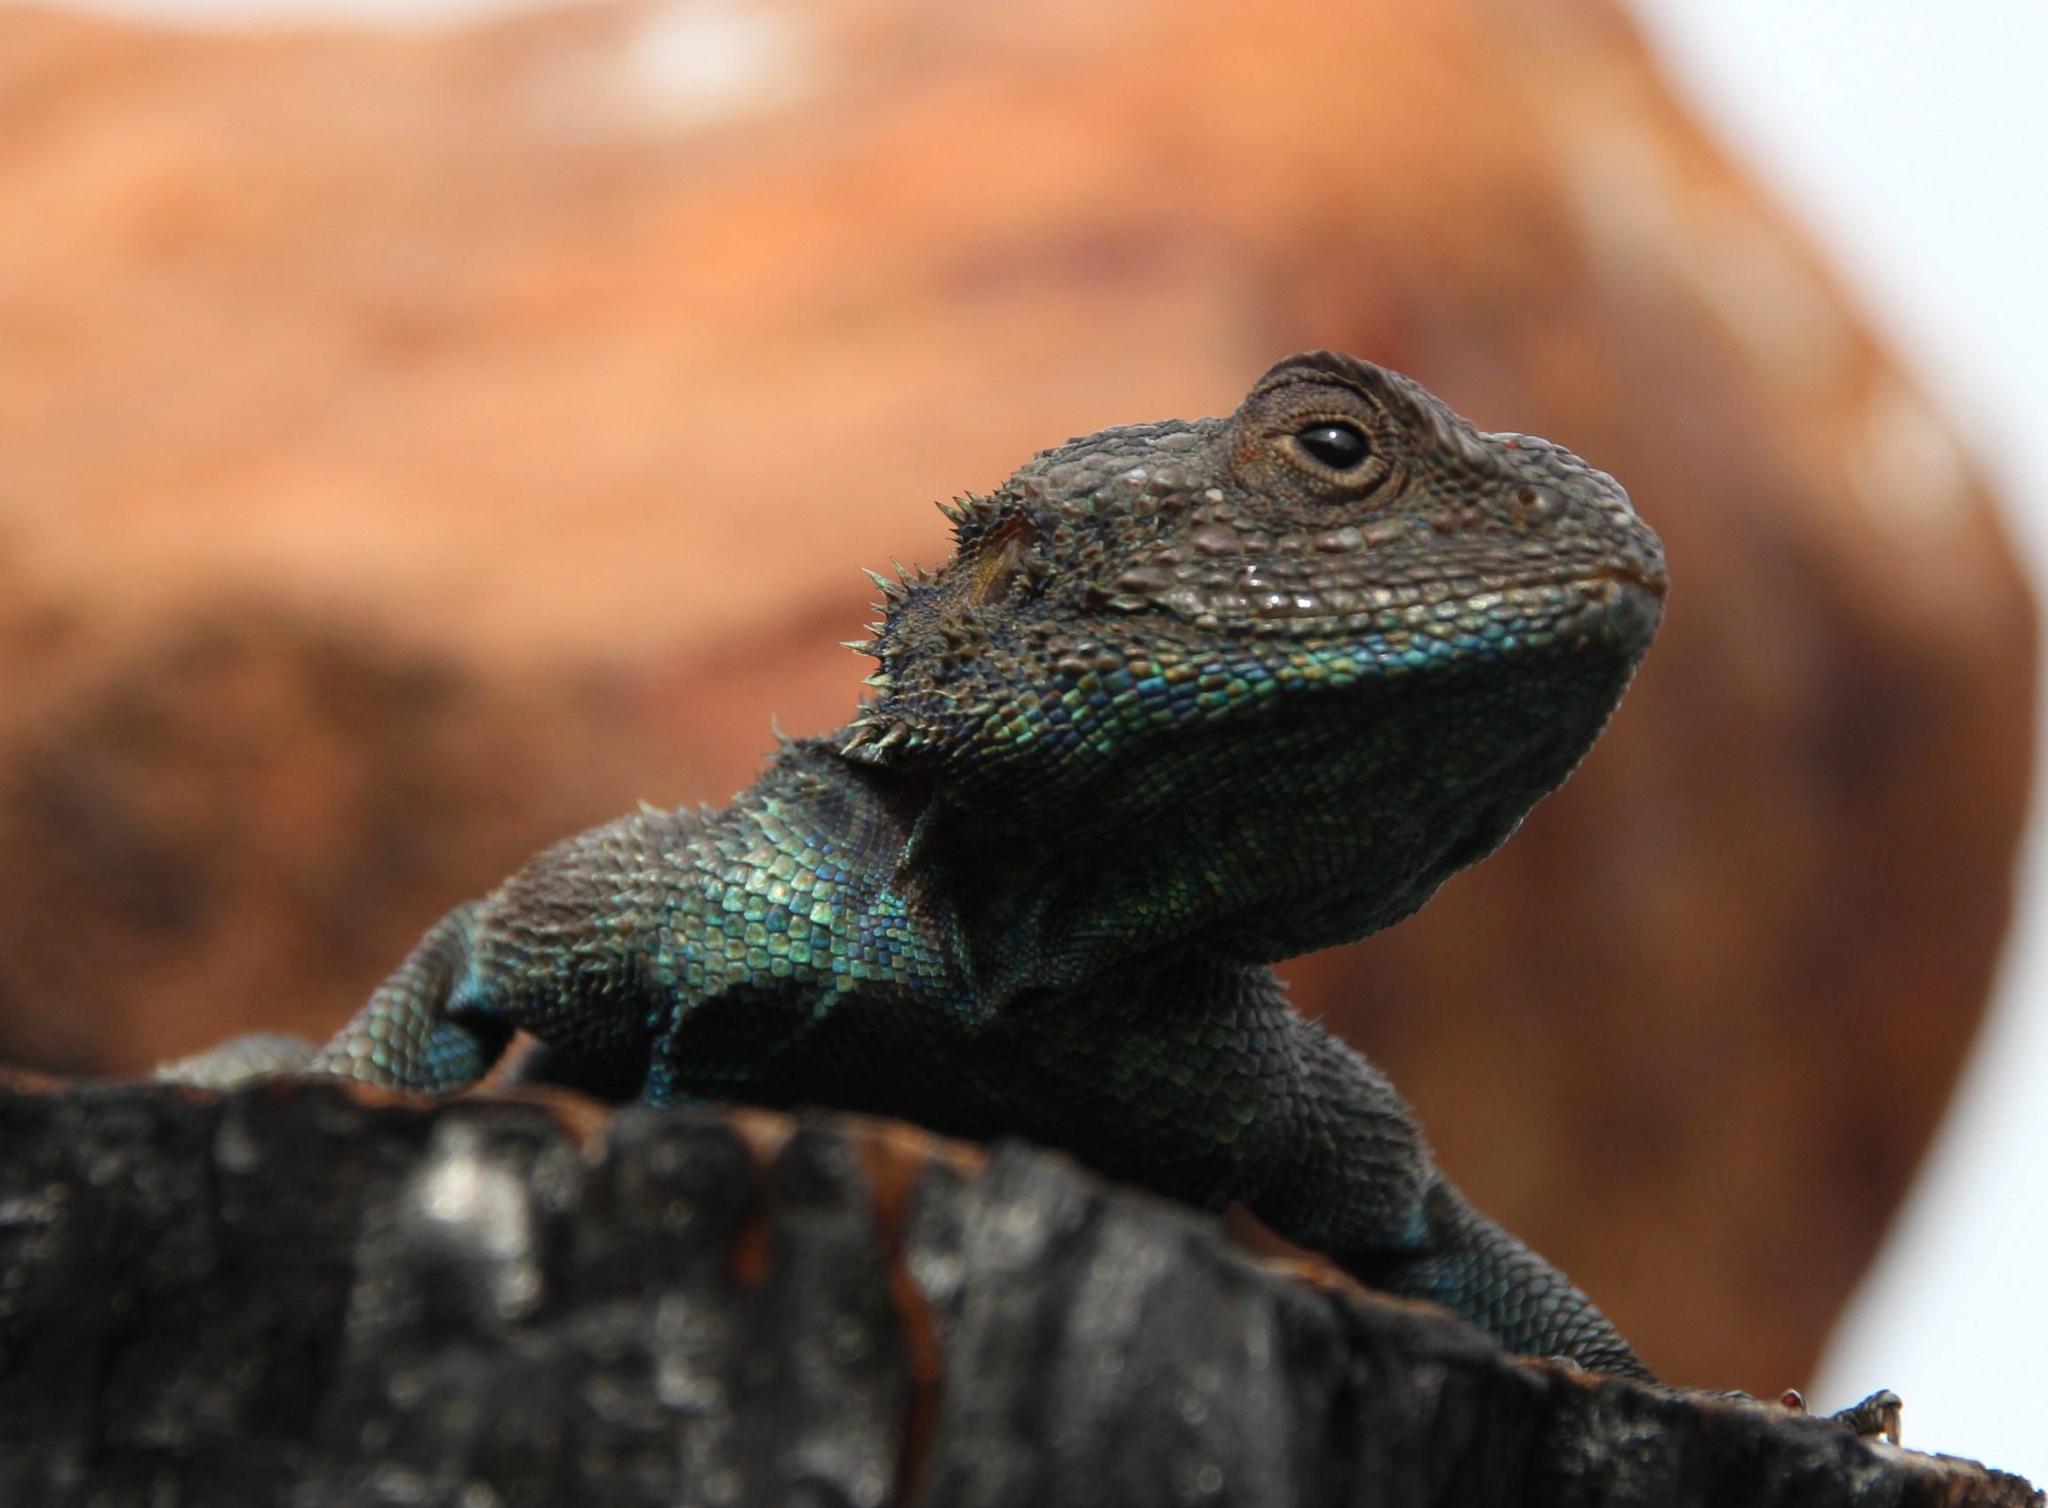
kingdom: Animalia
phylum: Chordata
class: Squamata
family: Agamidae
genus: Agama
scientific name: Agama atra
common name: Southern african rock agama
